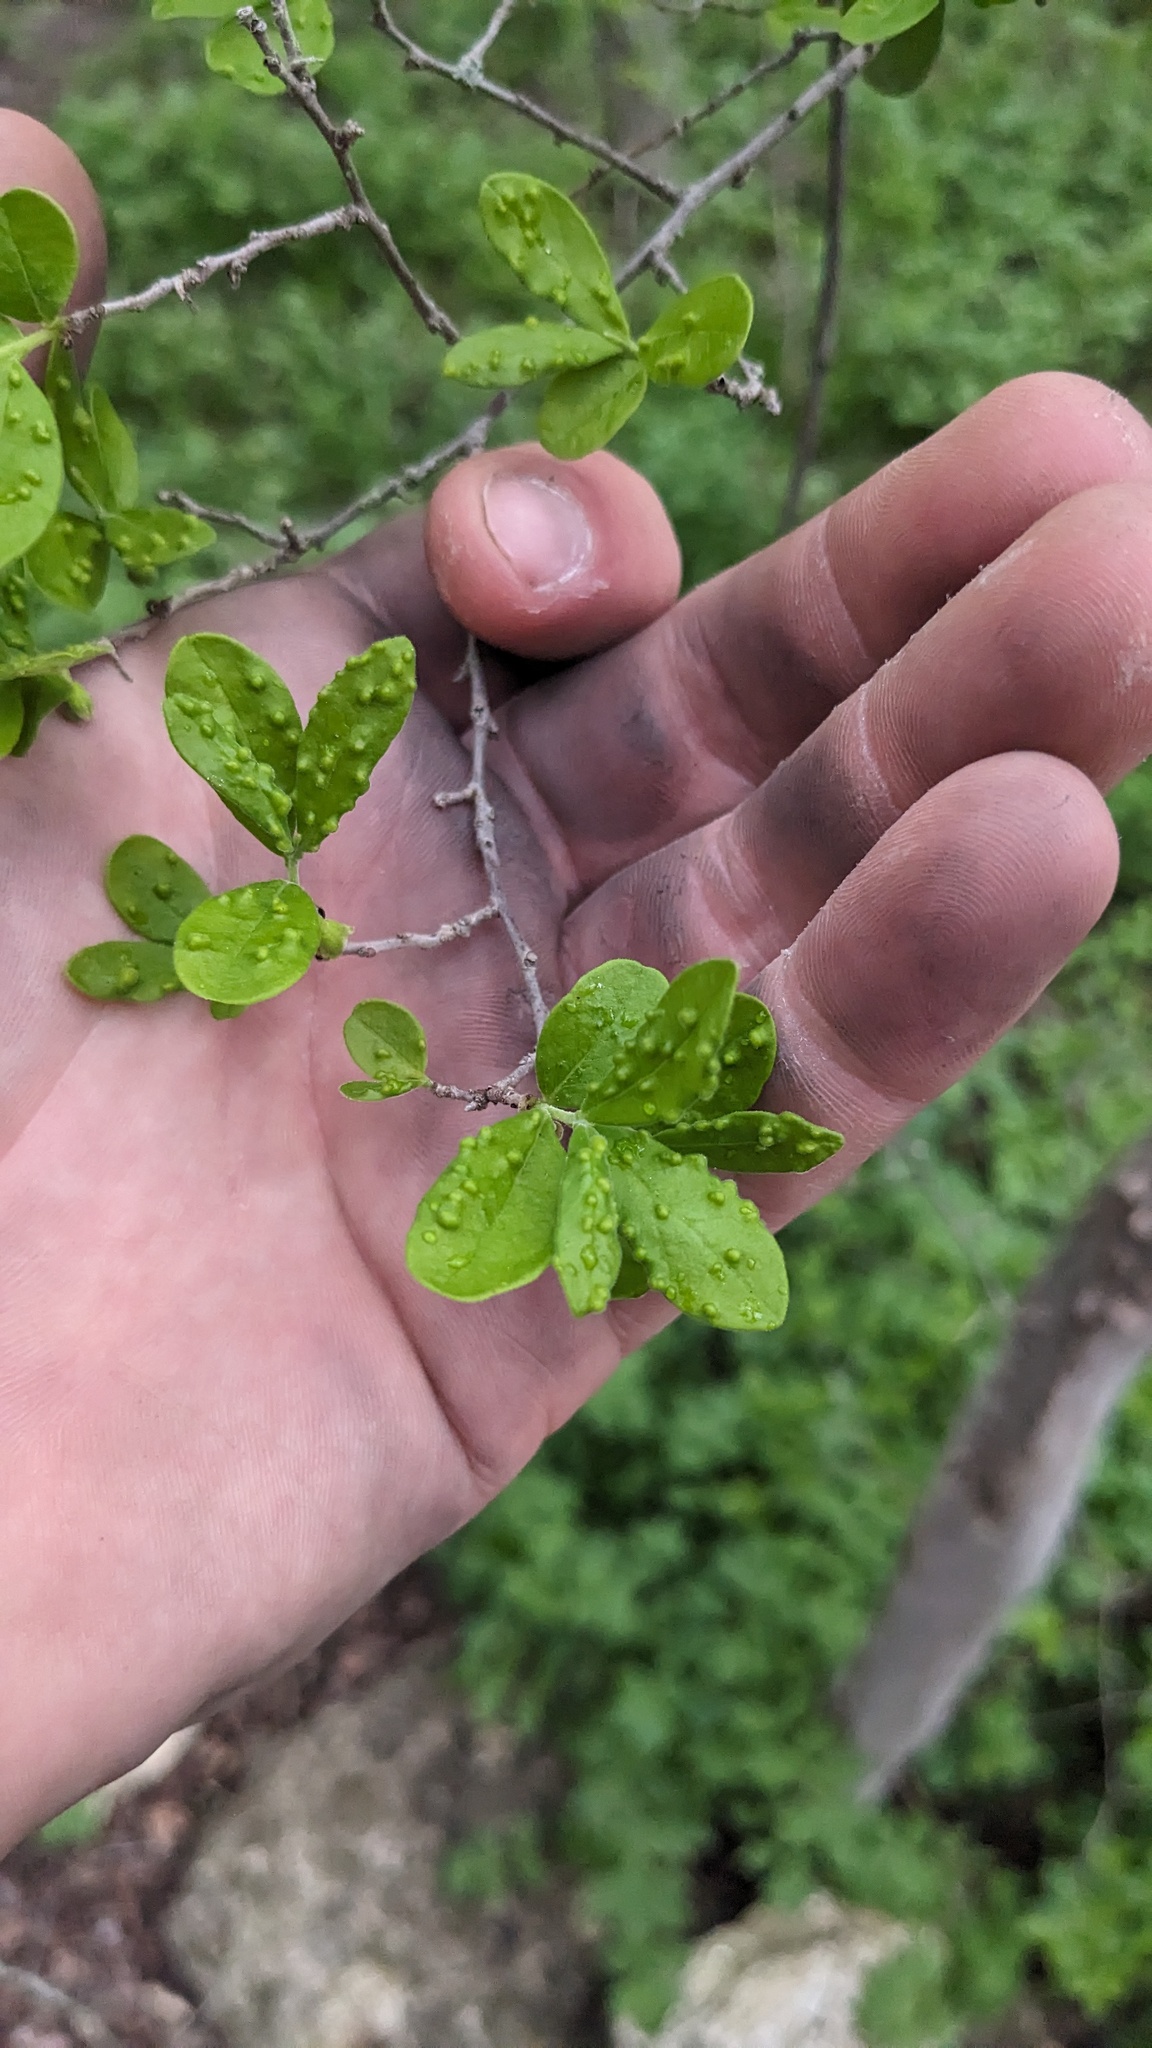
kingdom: Plantae
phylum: Tracheophyta
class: Magnoliopsida
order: Ericales
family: Ebenaceae
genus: Diospyros
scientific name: Diospyros texana
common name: Texas persimmon
